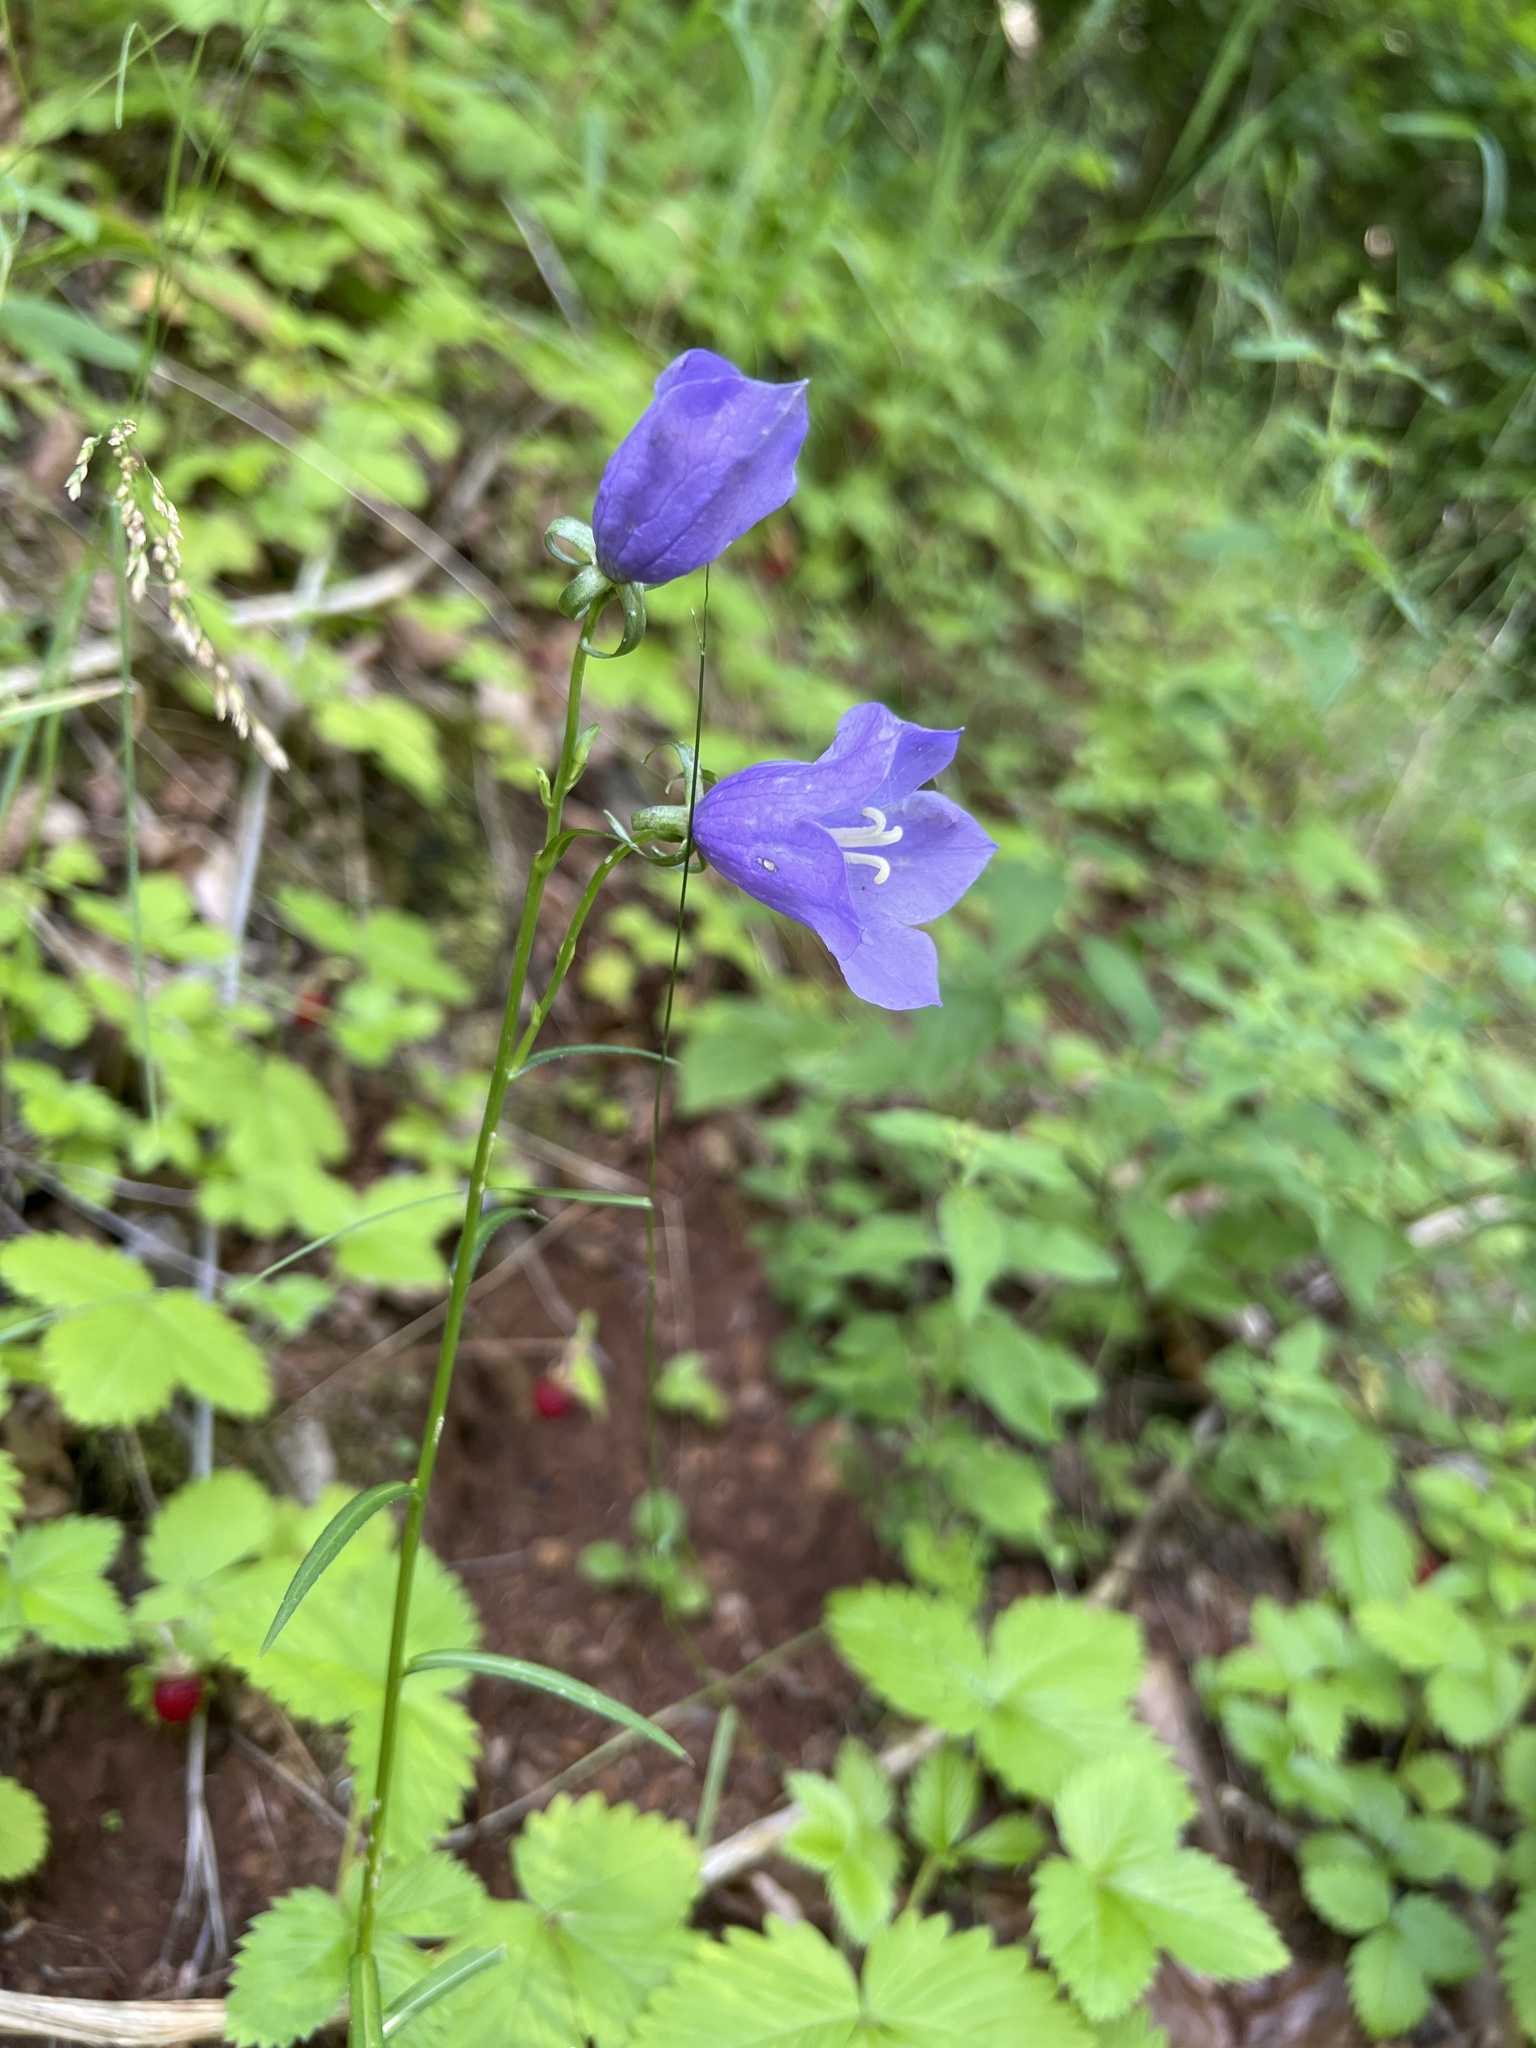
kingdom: Plantae
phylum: Tracheophyta
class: Magnoliopsida
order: Asterales
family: Campanulaceae
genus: Campanula
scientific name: Campanula persicifolia
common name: Peach-leaved bellflower
